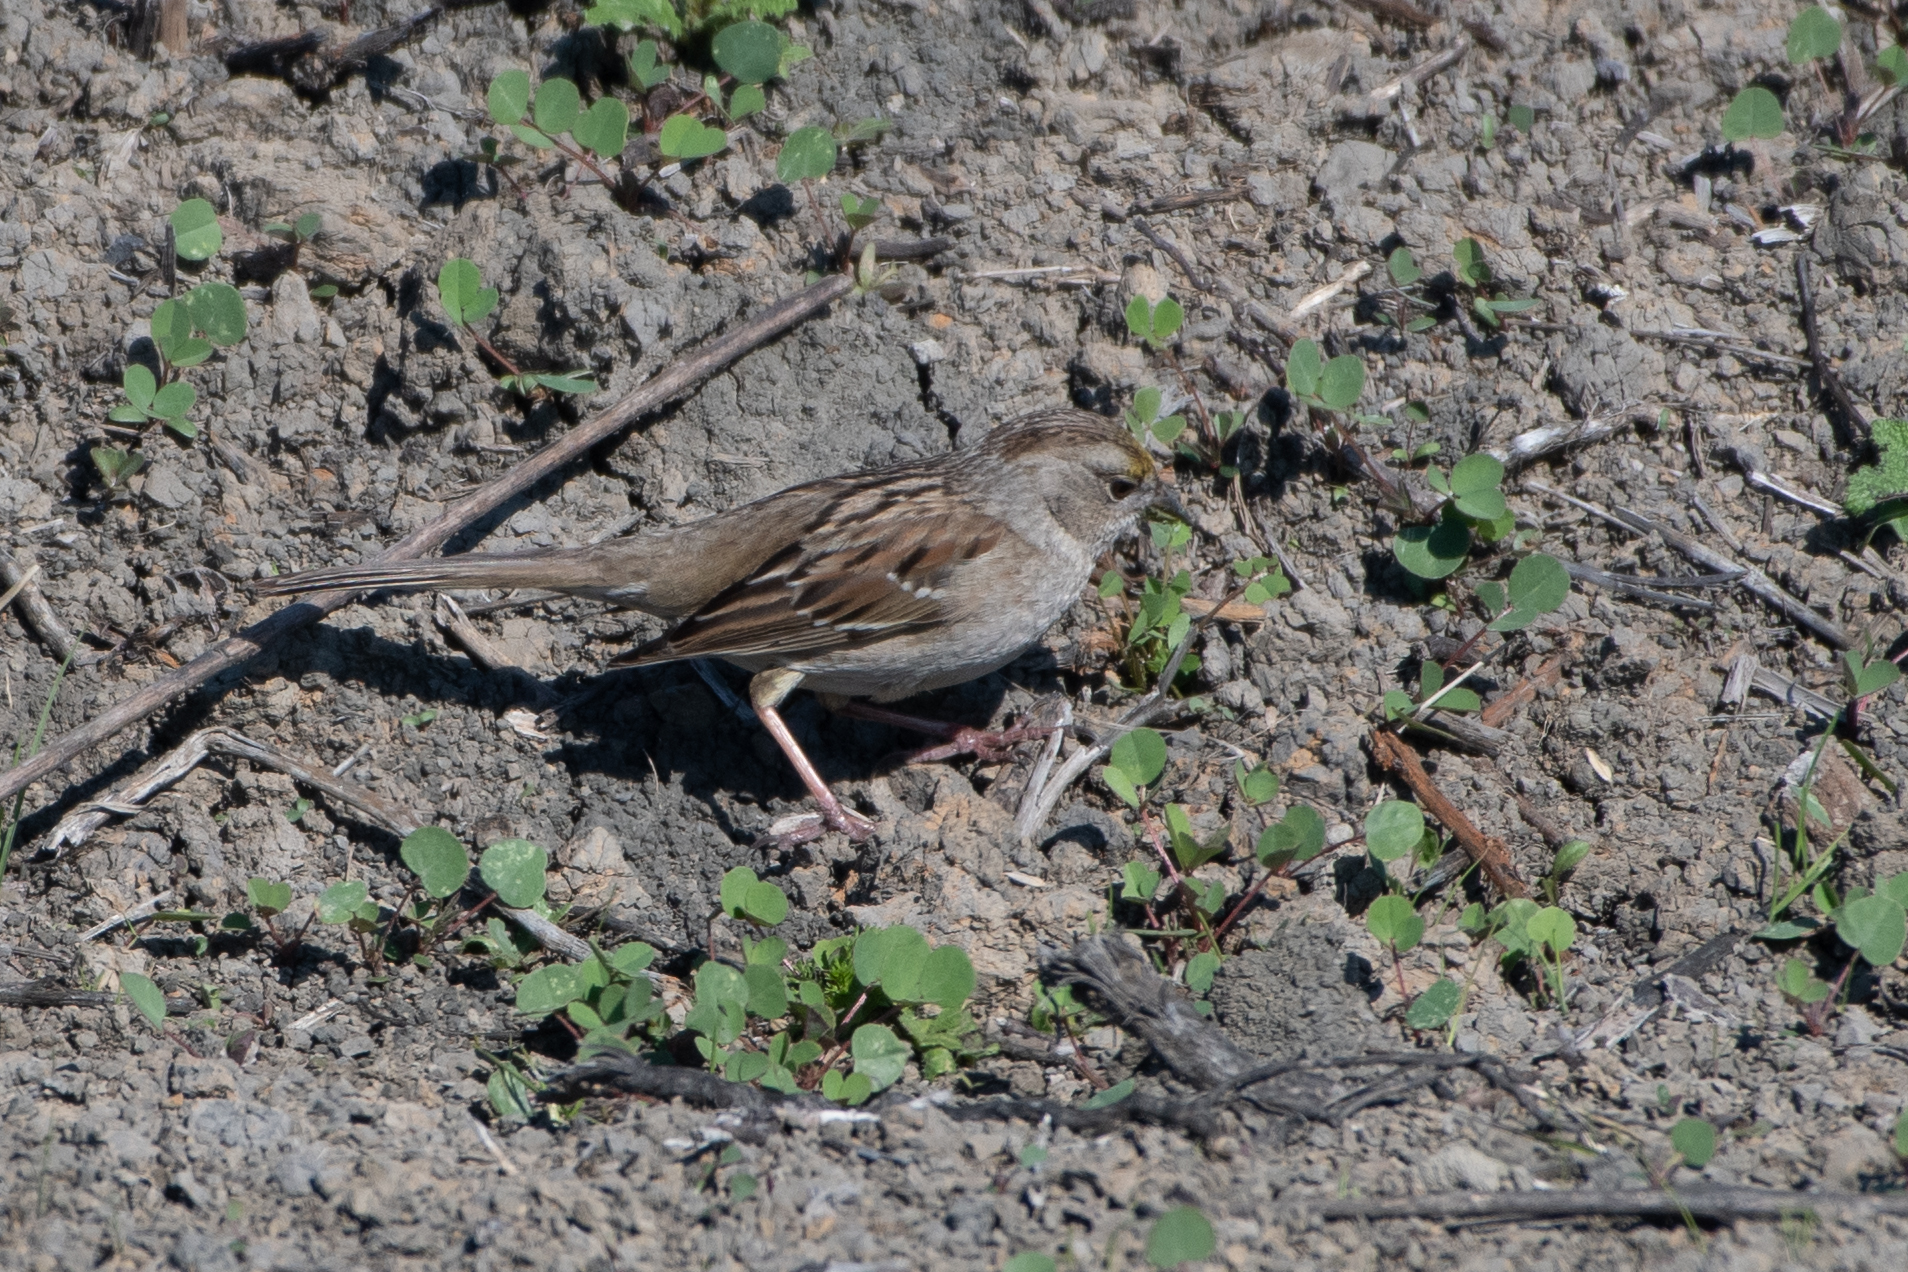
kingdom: Animalia
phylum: Chordata
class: Aves
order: Passeriformes
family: Passerellidae
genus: Zonotrichia
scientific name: Zonotrichia atricapilla
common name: Golden-crowned sparrow
